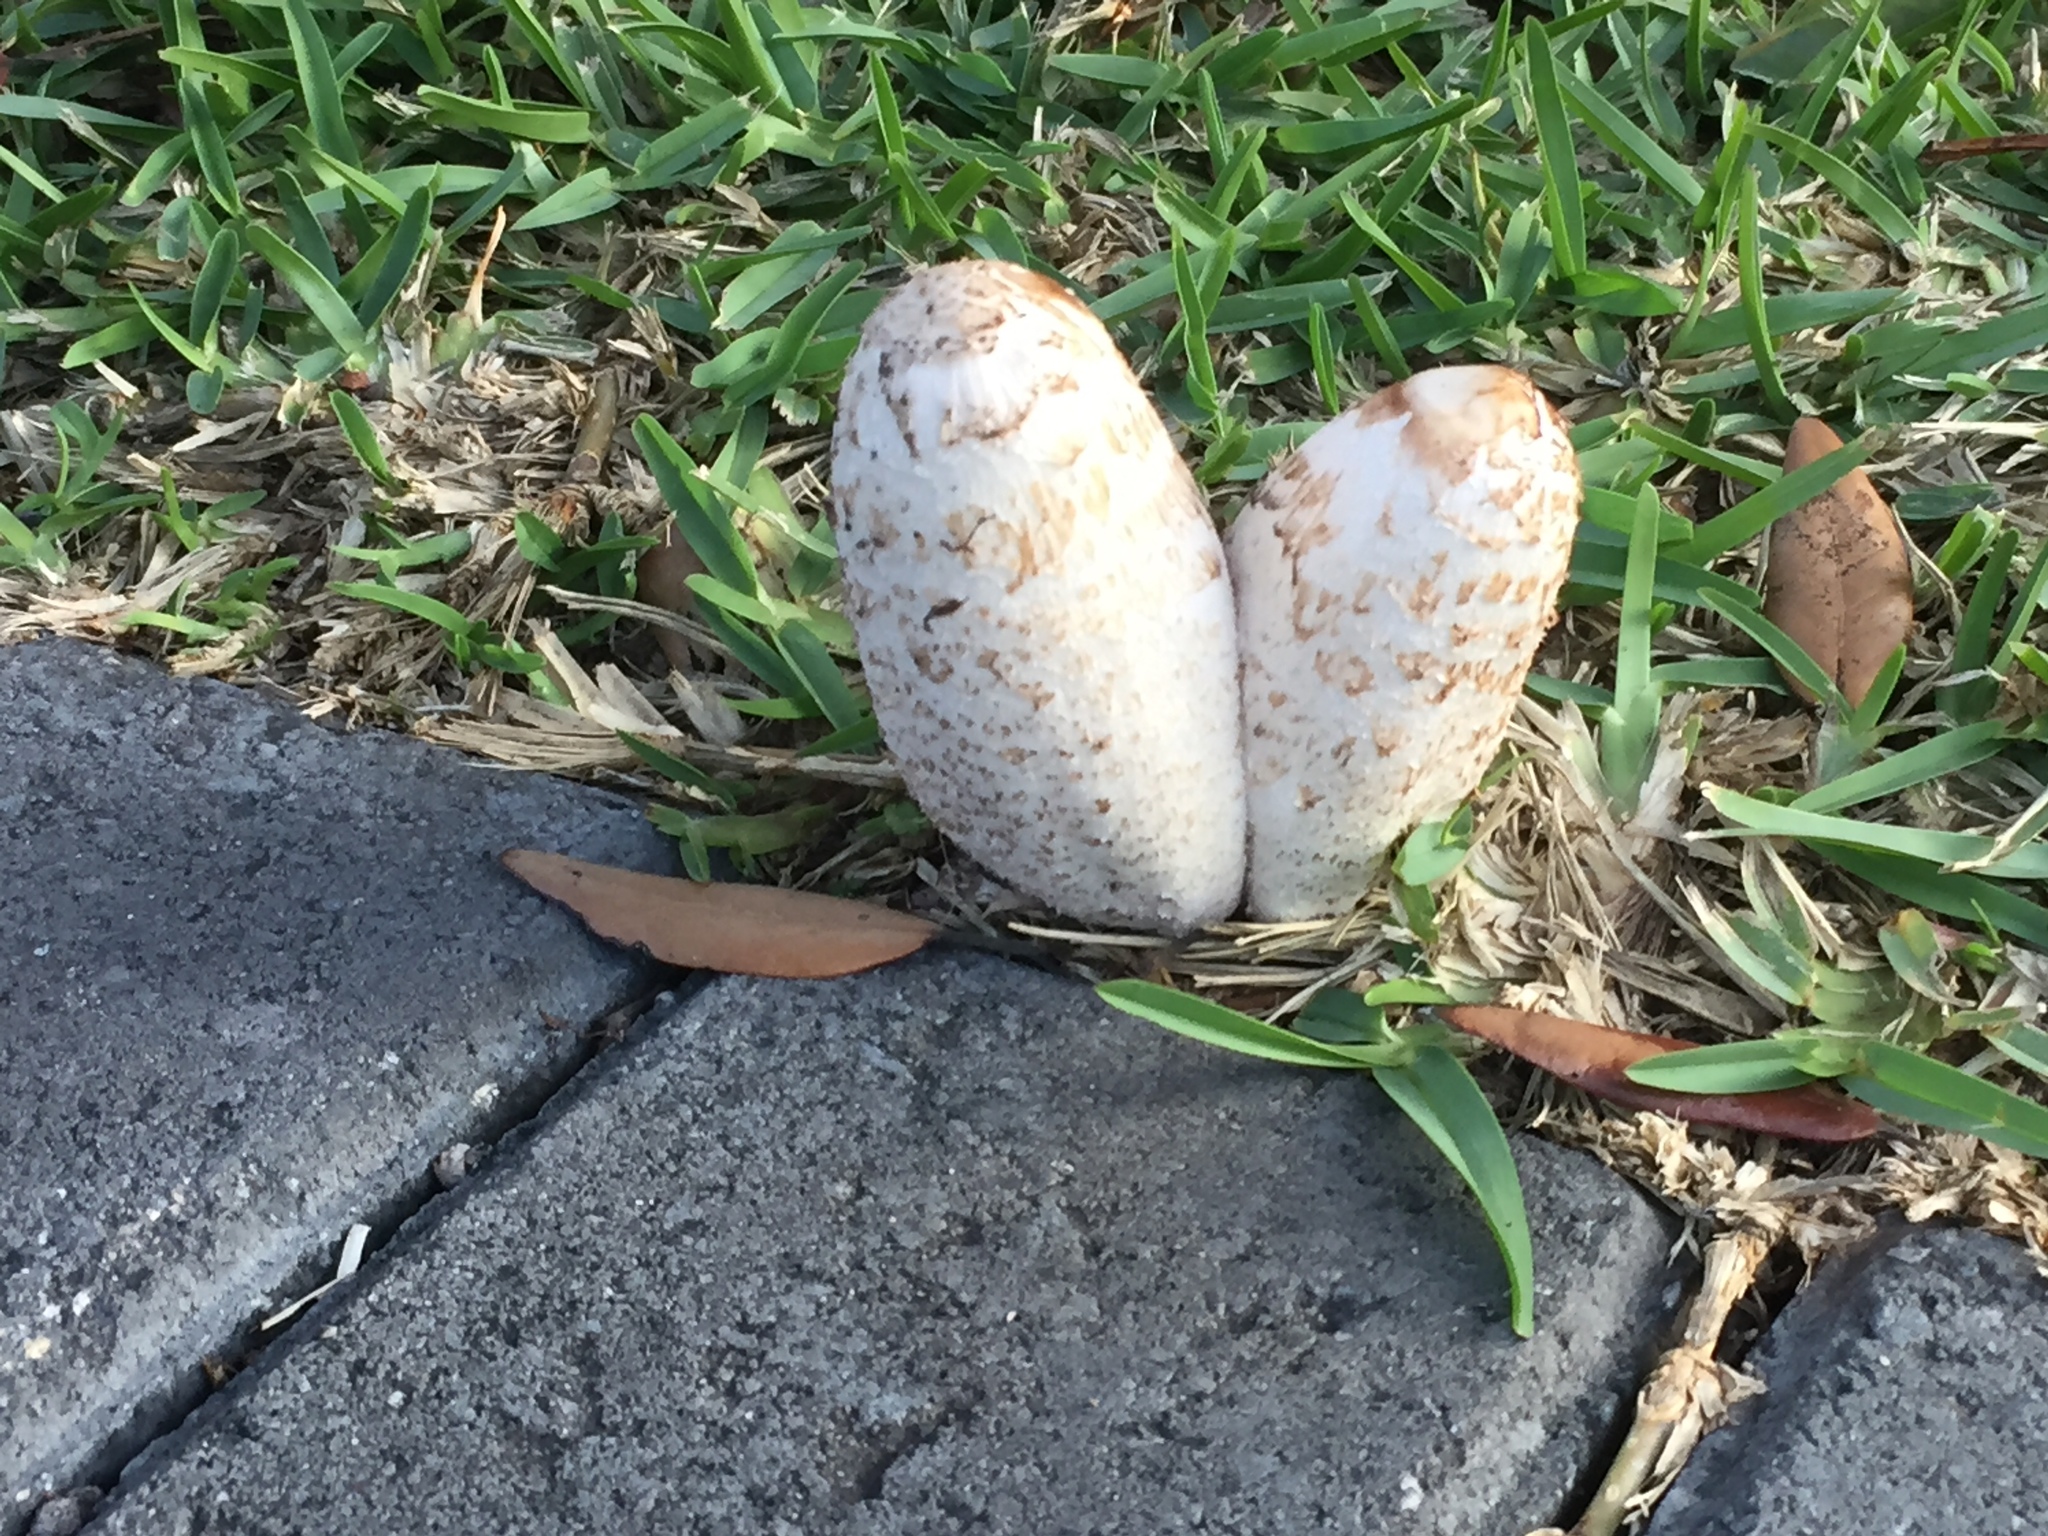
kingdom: Fungi
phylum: Basidiomycota
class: Agaricomycetes
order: Agaricales
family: Agaricaceae
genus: Coprinus
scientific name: Coprinus comatus
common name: Lawyer's wig
